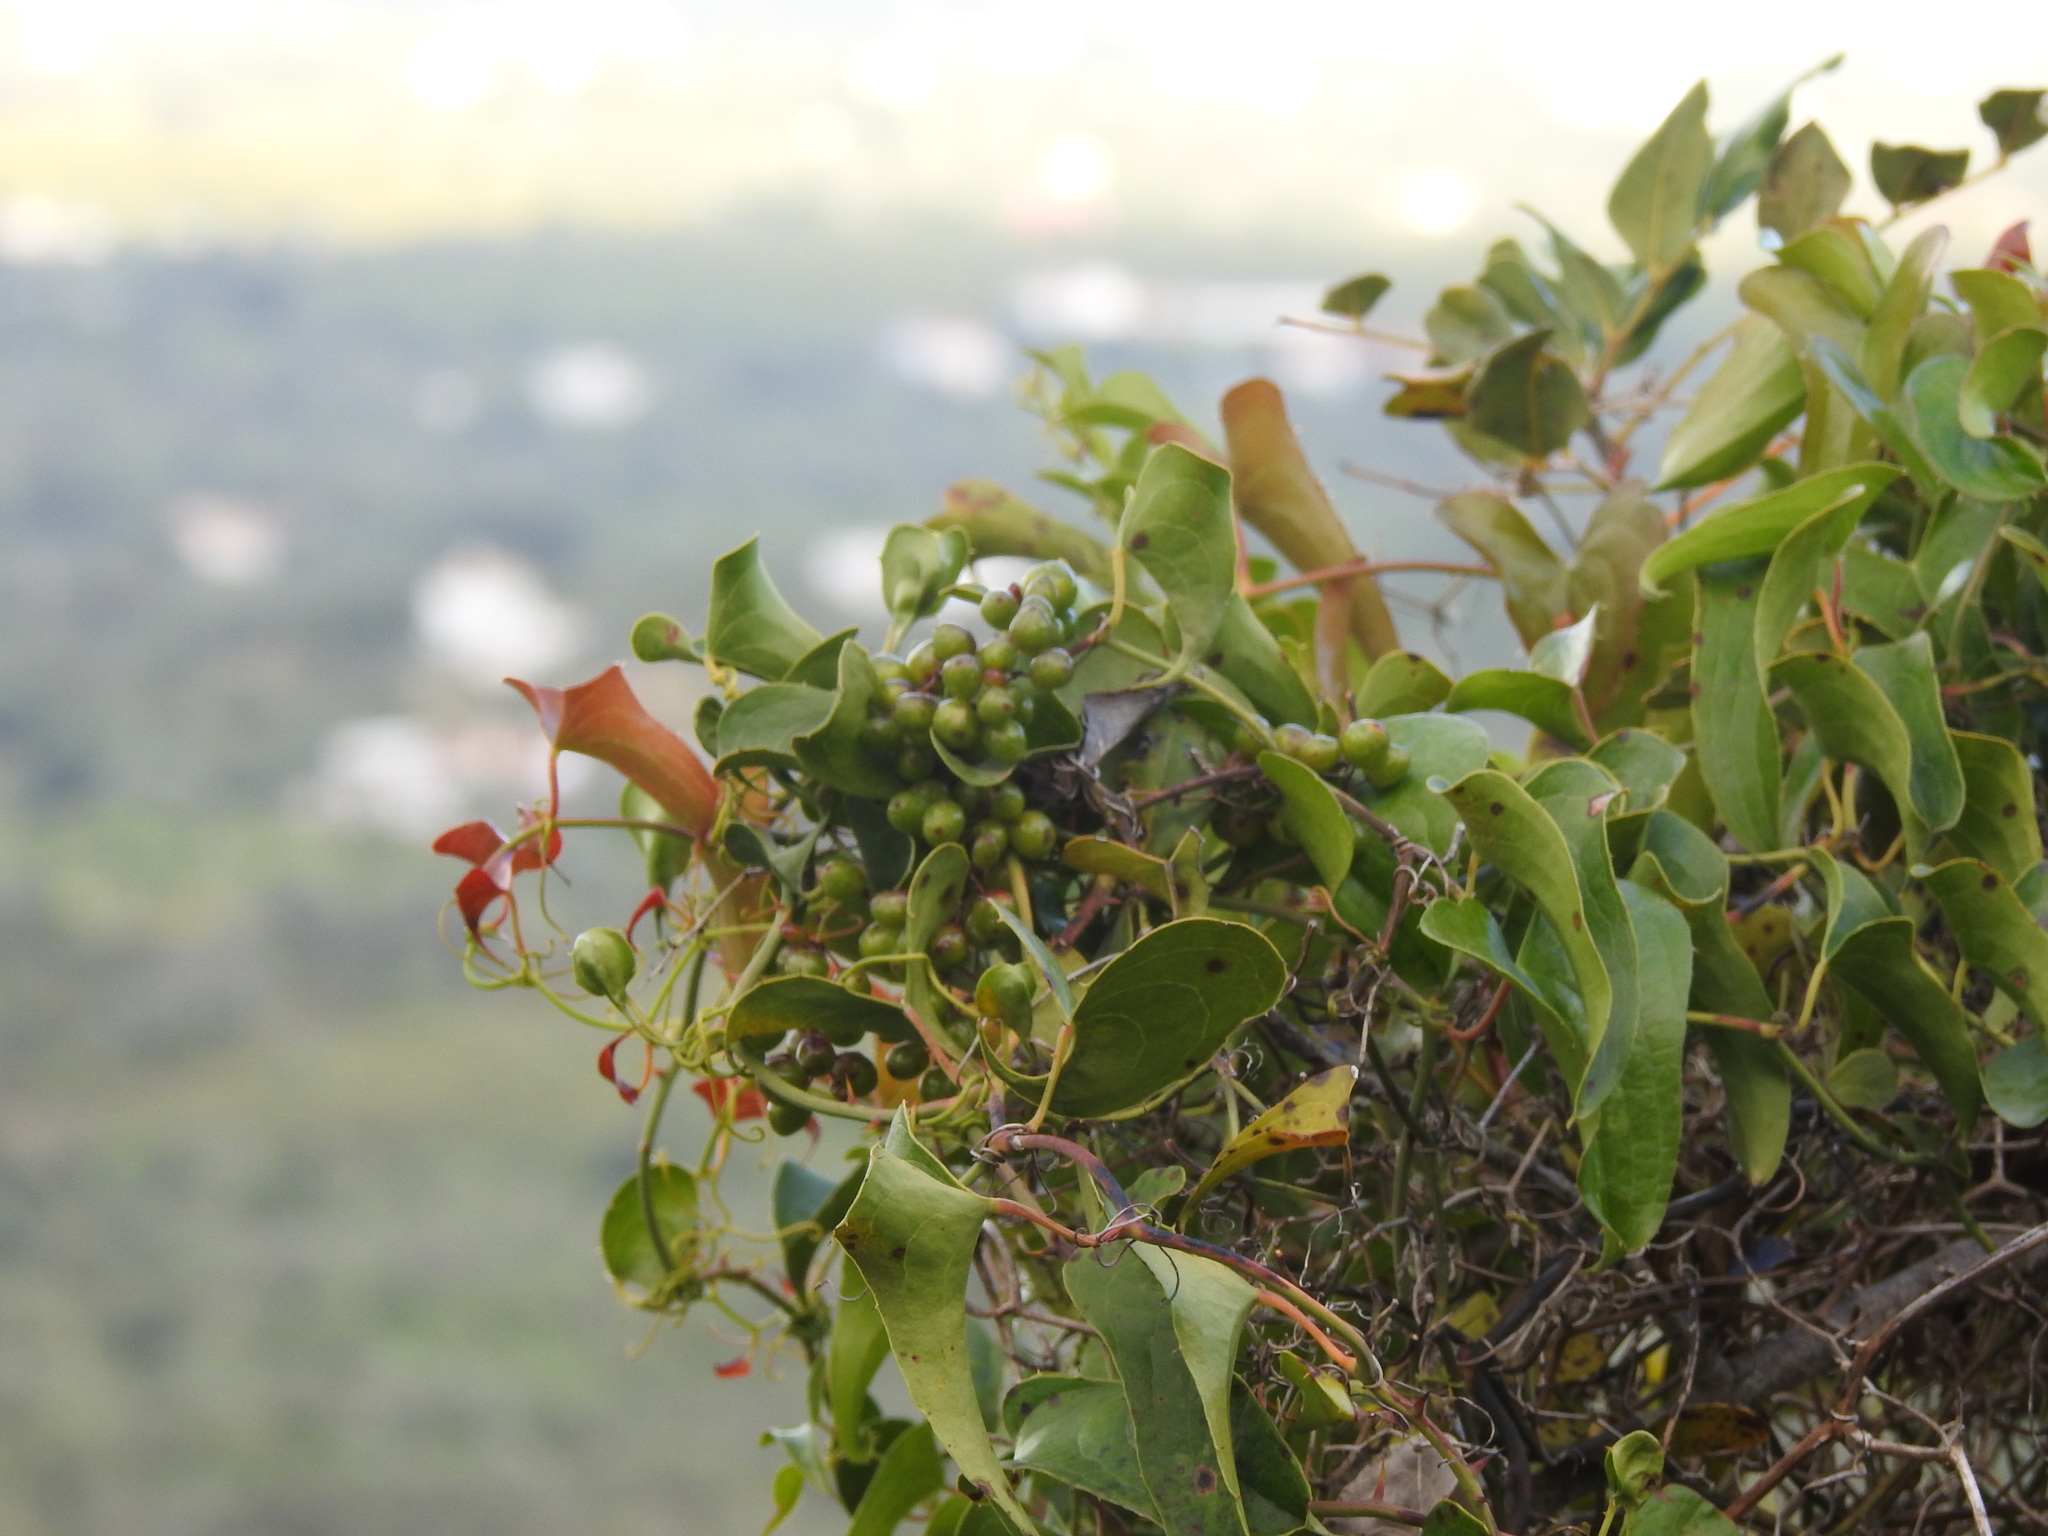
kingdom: Plantae
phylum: Tracheophyta
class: Liliopsida
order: Liliales
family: Smilacaceae
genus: Smilax
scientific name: Smilax aspera
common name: Common smilax
